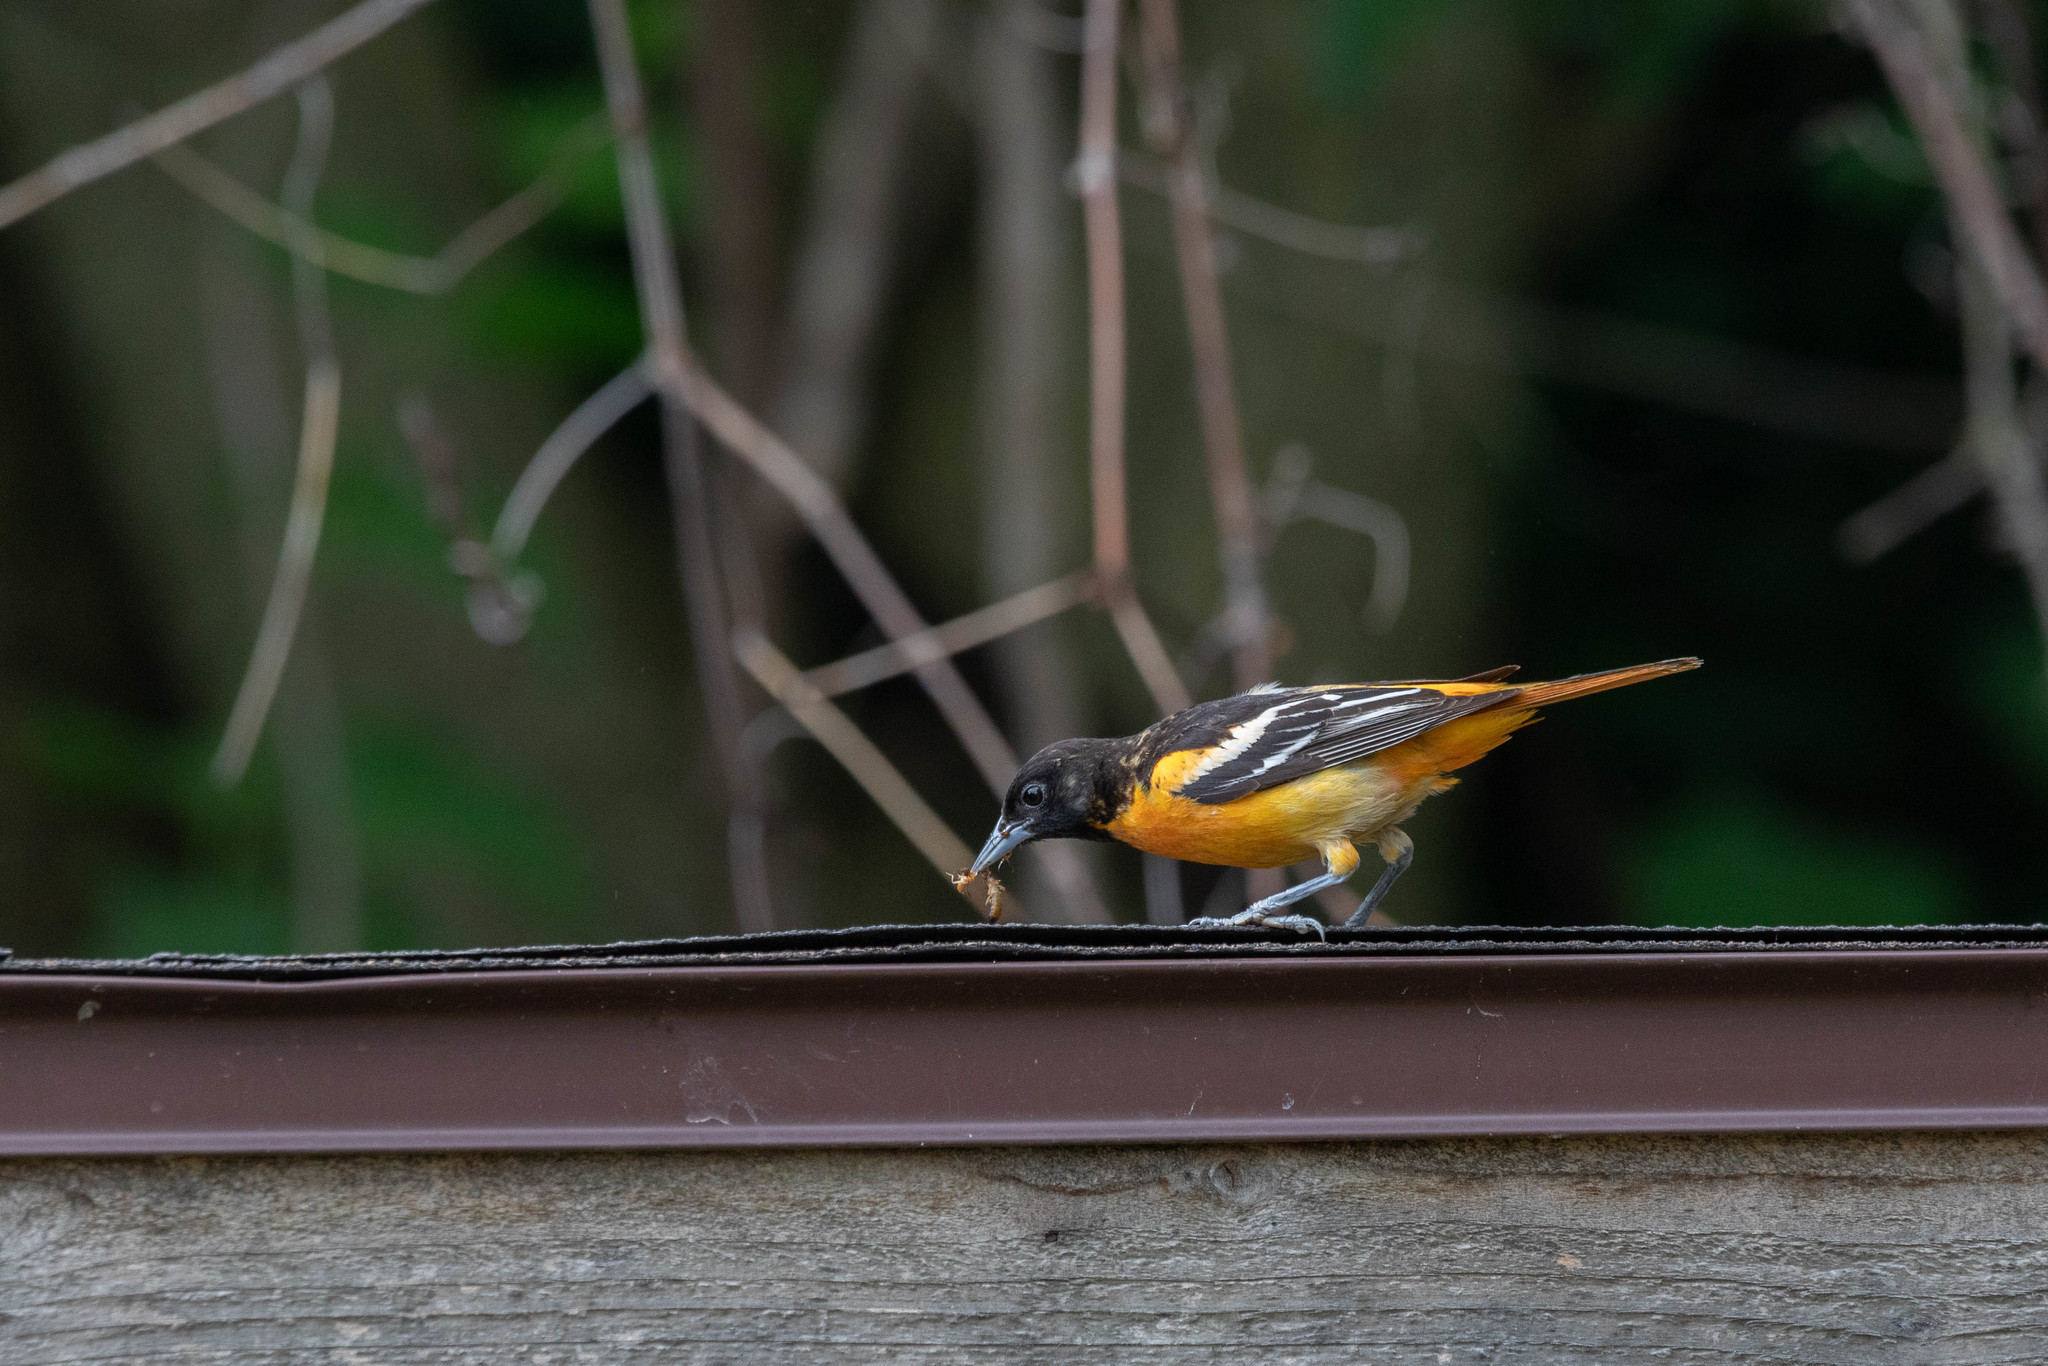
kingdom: Animalia
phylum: Chordata
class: Aves
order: Passeriformes
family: Icteridae
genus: Icterus
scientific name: Icterus galbula
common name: Baltimore oriole
